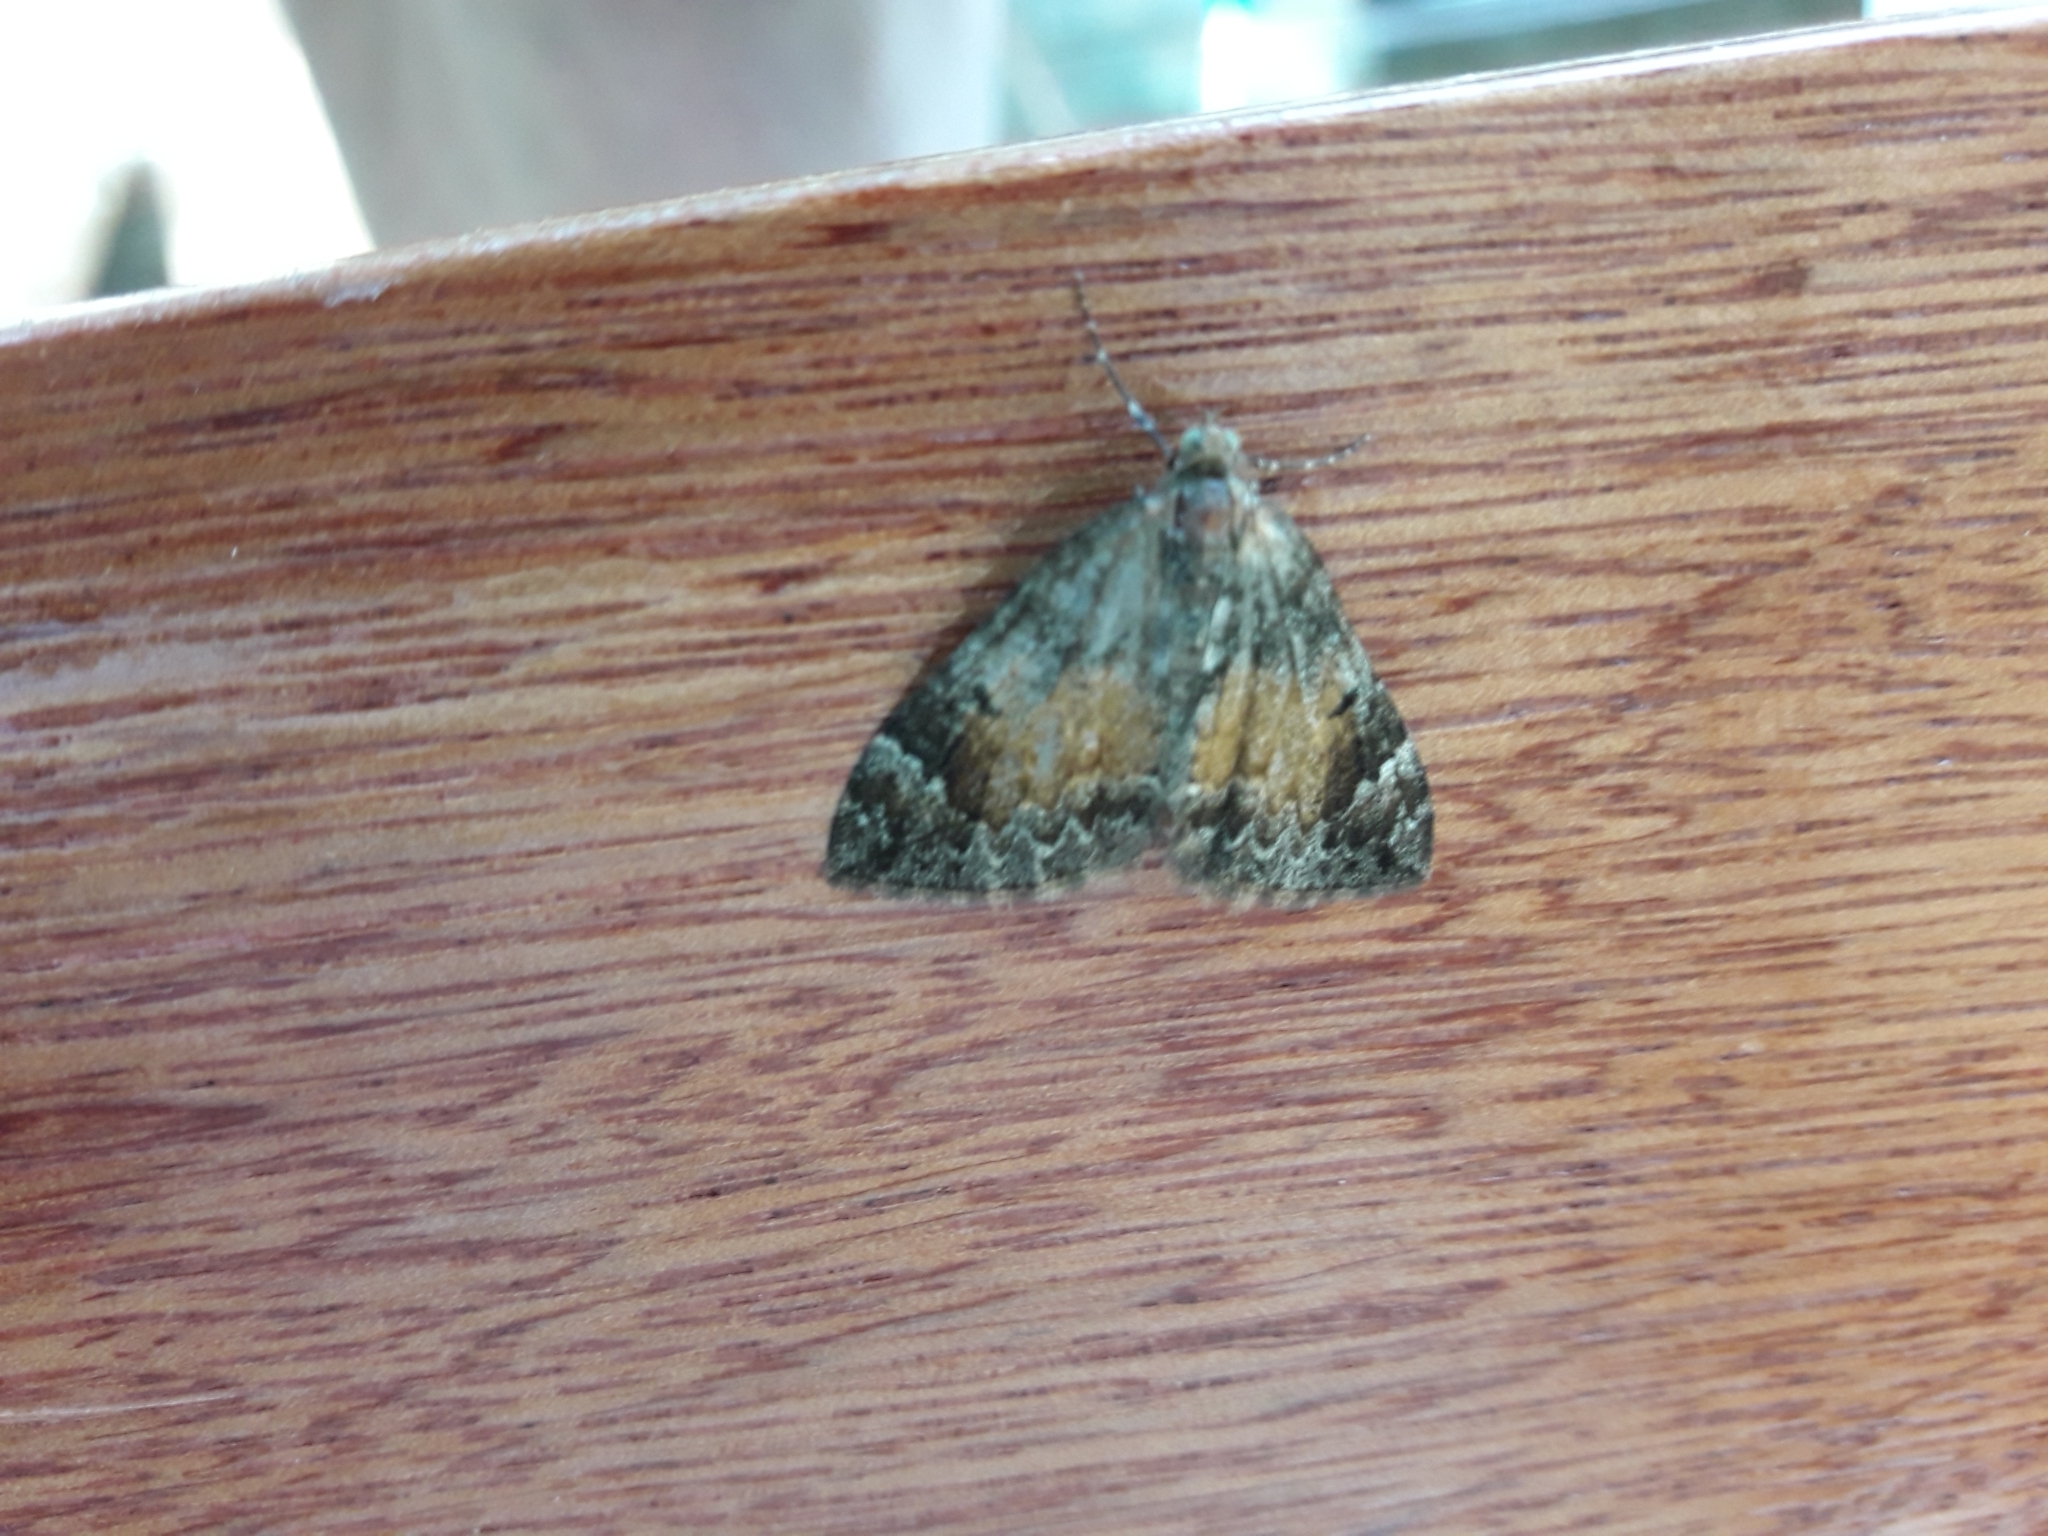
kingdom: Animalia
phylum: Arthropoda
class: Insecta
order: Lepidoptera
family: Geometridae
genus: Dysstroma
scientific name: Dysstroma truncata
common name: Common marbled carpet
